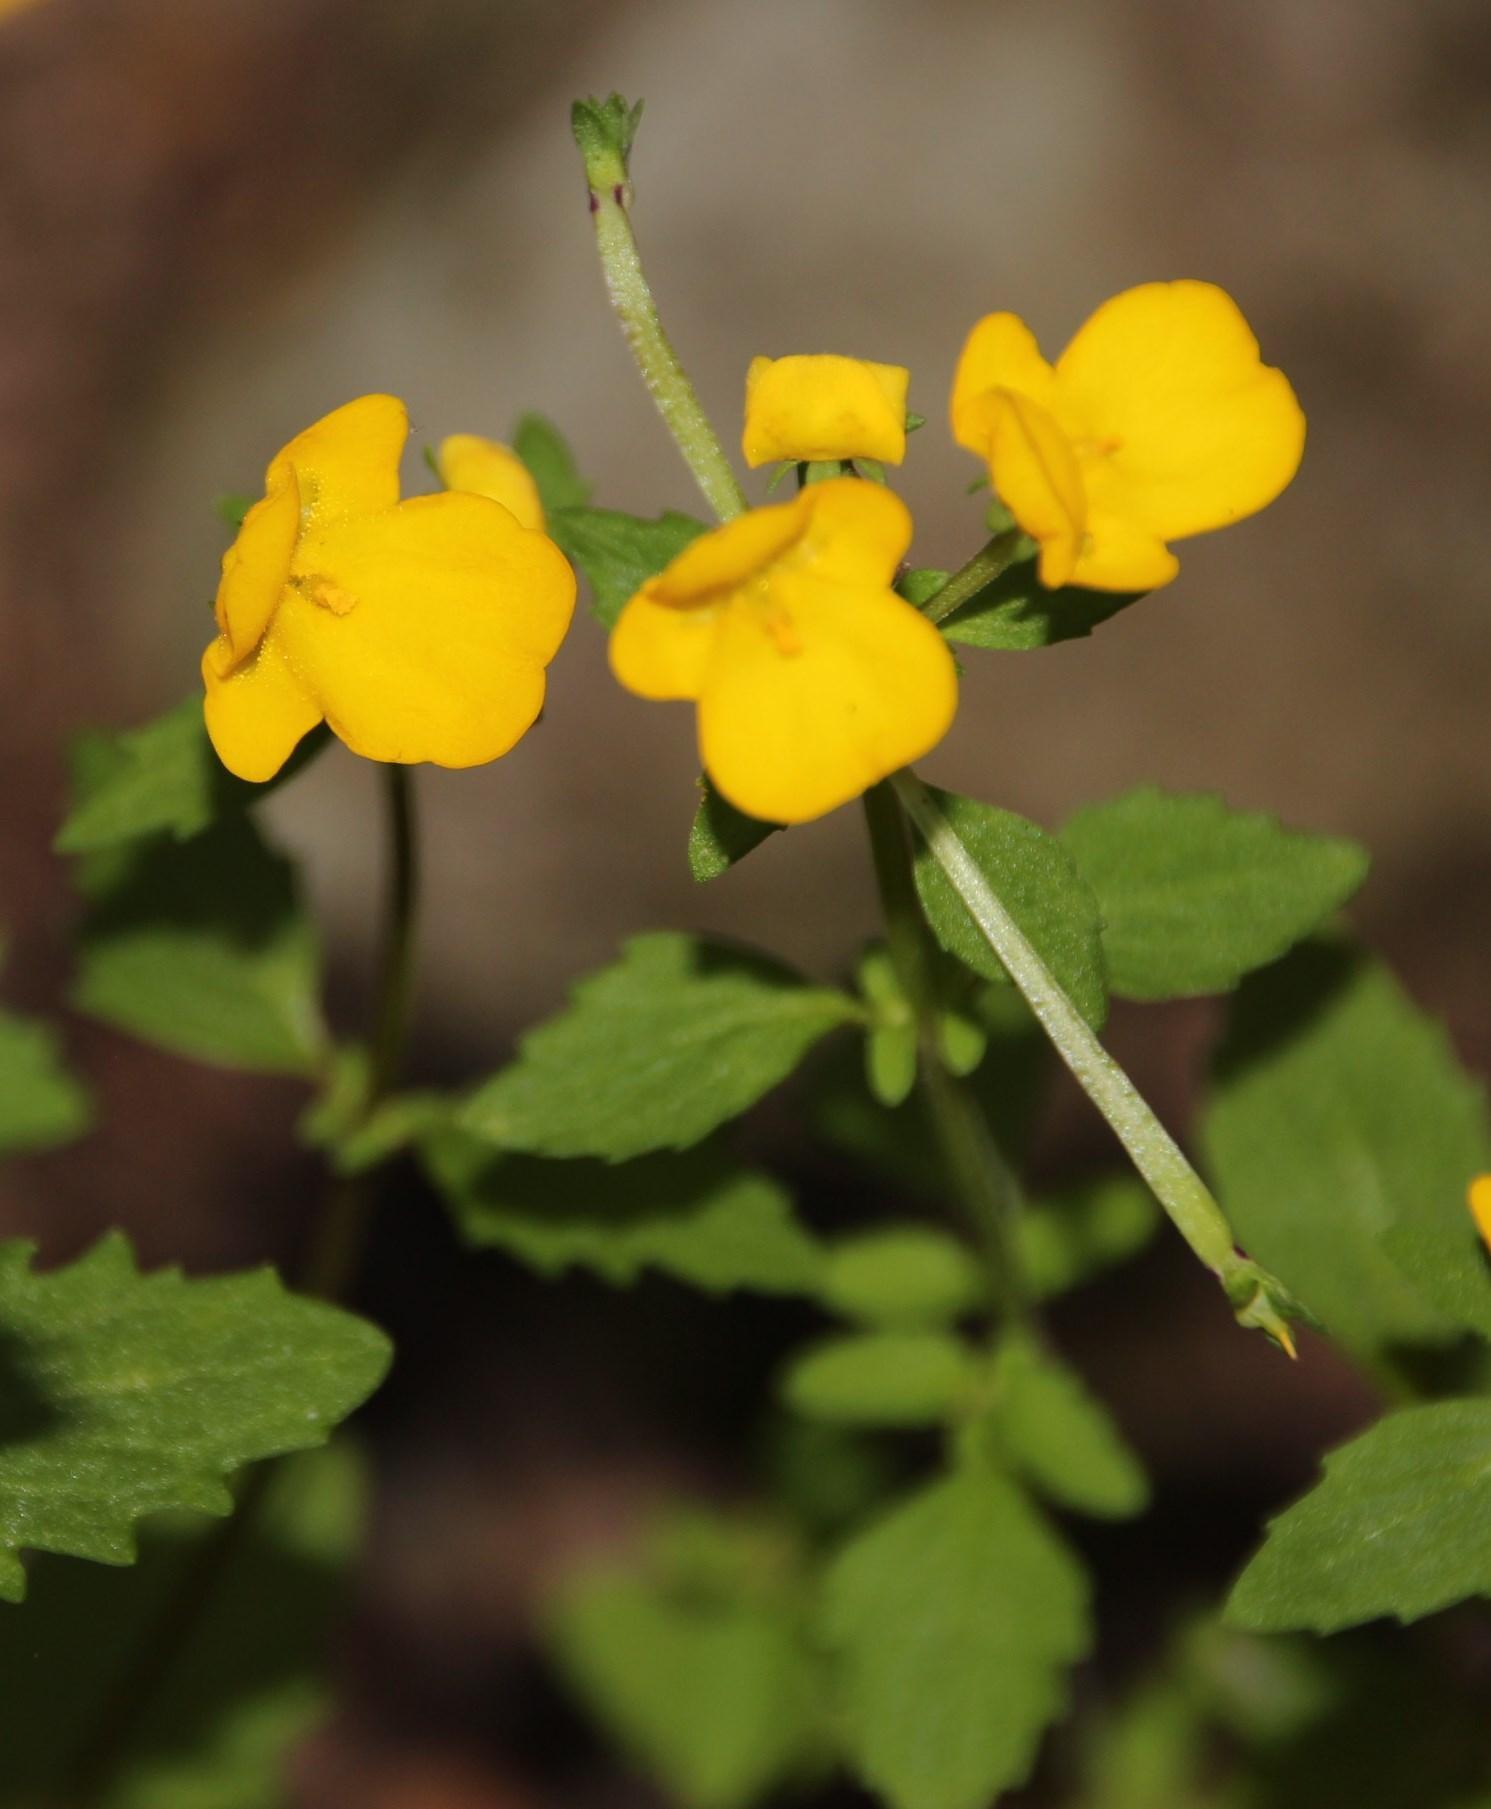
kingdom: Plantae
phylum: Tracheophyta
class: Magnoliopsida
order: Lamiales
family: Scrophulariaceae
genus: Hemimeris
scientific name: Hemimeris racemosa
